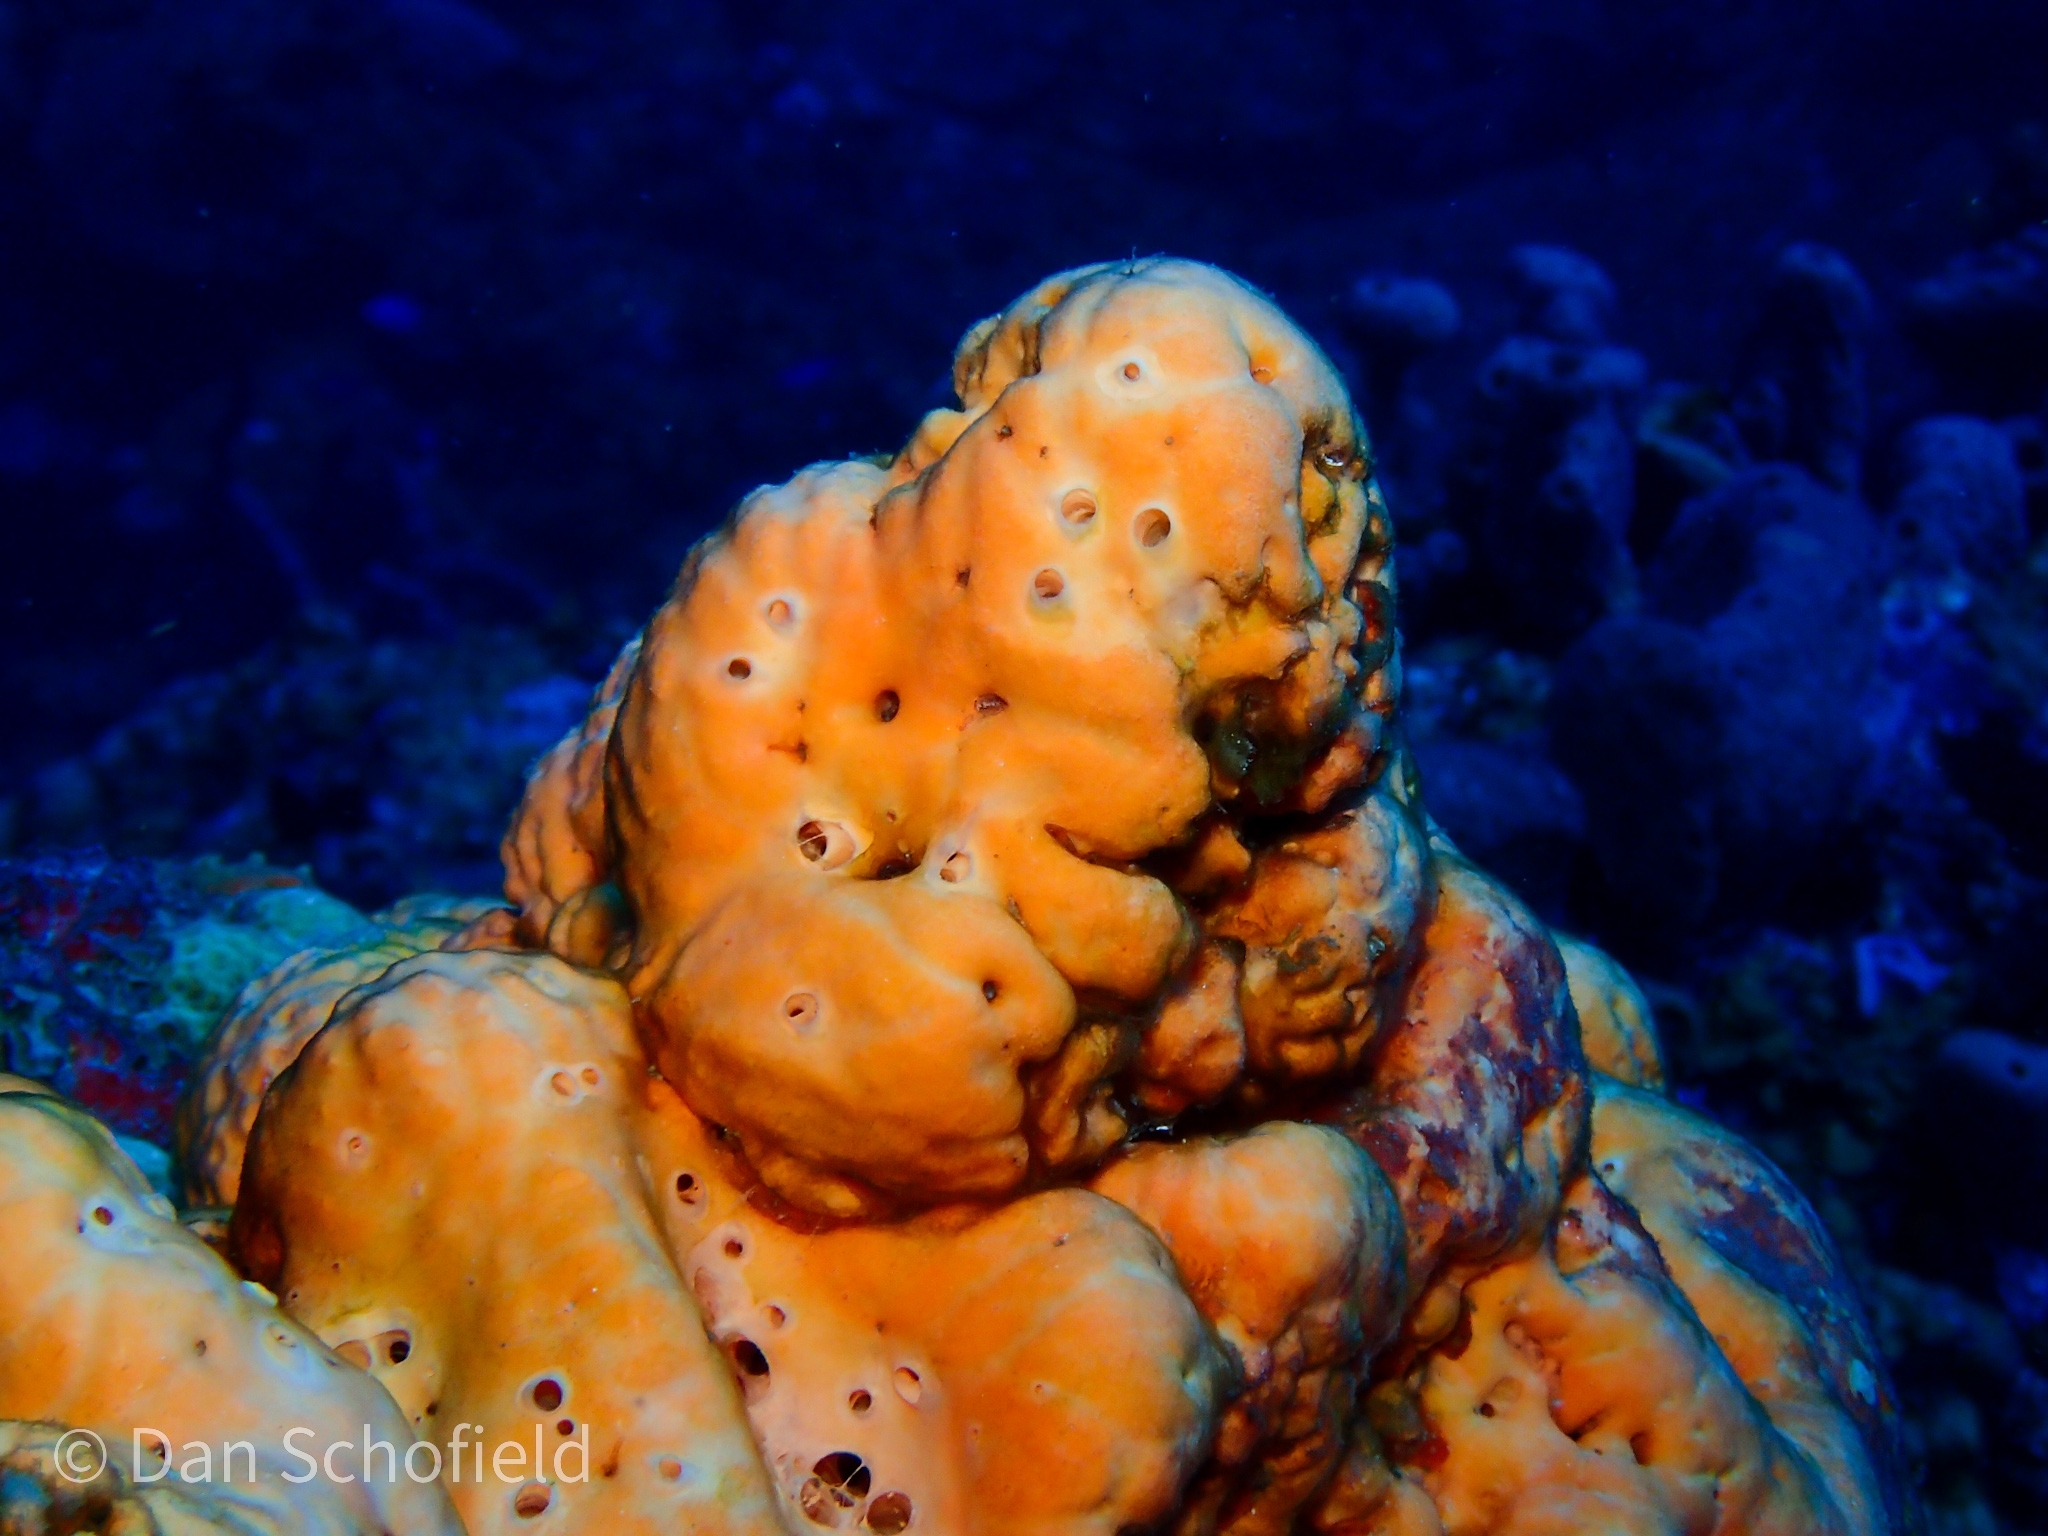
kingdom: Animalia
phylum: Porifera
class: Demospongiae
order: Agelasida
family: Agelasidae
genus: Agelas
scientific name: Agelas sventres
